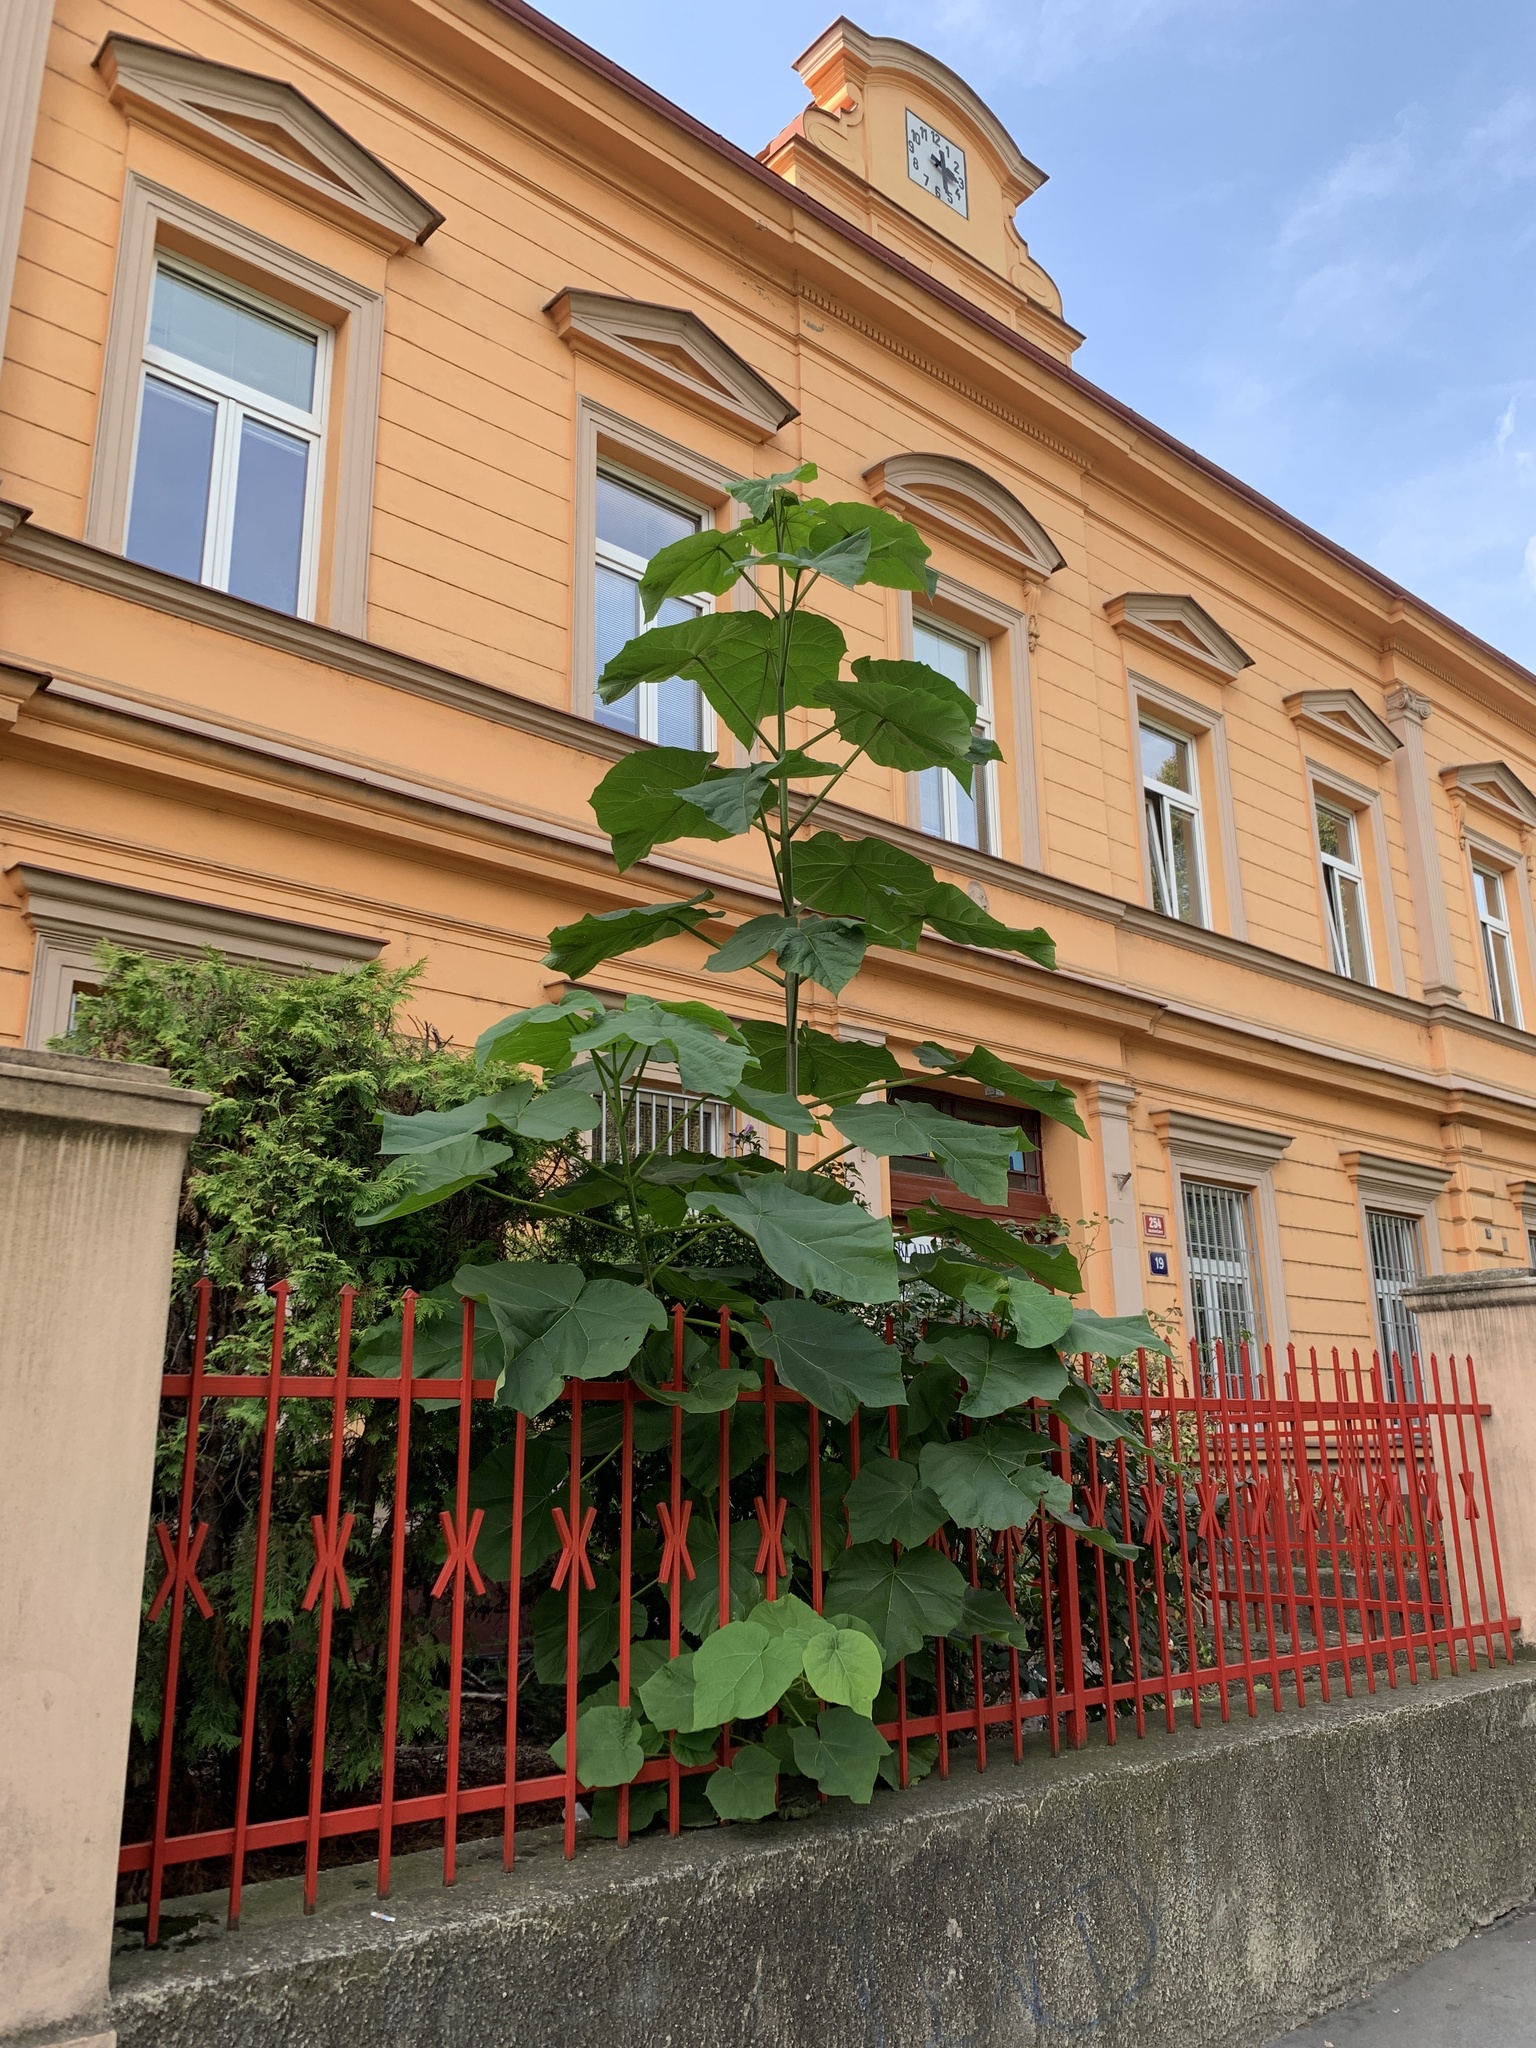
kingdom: Plantae
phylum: Tracheophyta
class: Magnoliopsida
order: Lamiales
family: Paulowniaceae
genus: Paulownia
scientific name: Paulownia tomentosa
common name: Foxglove-tree
